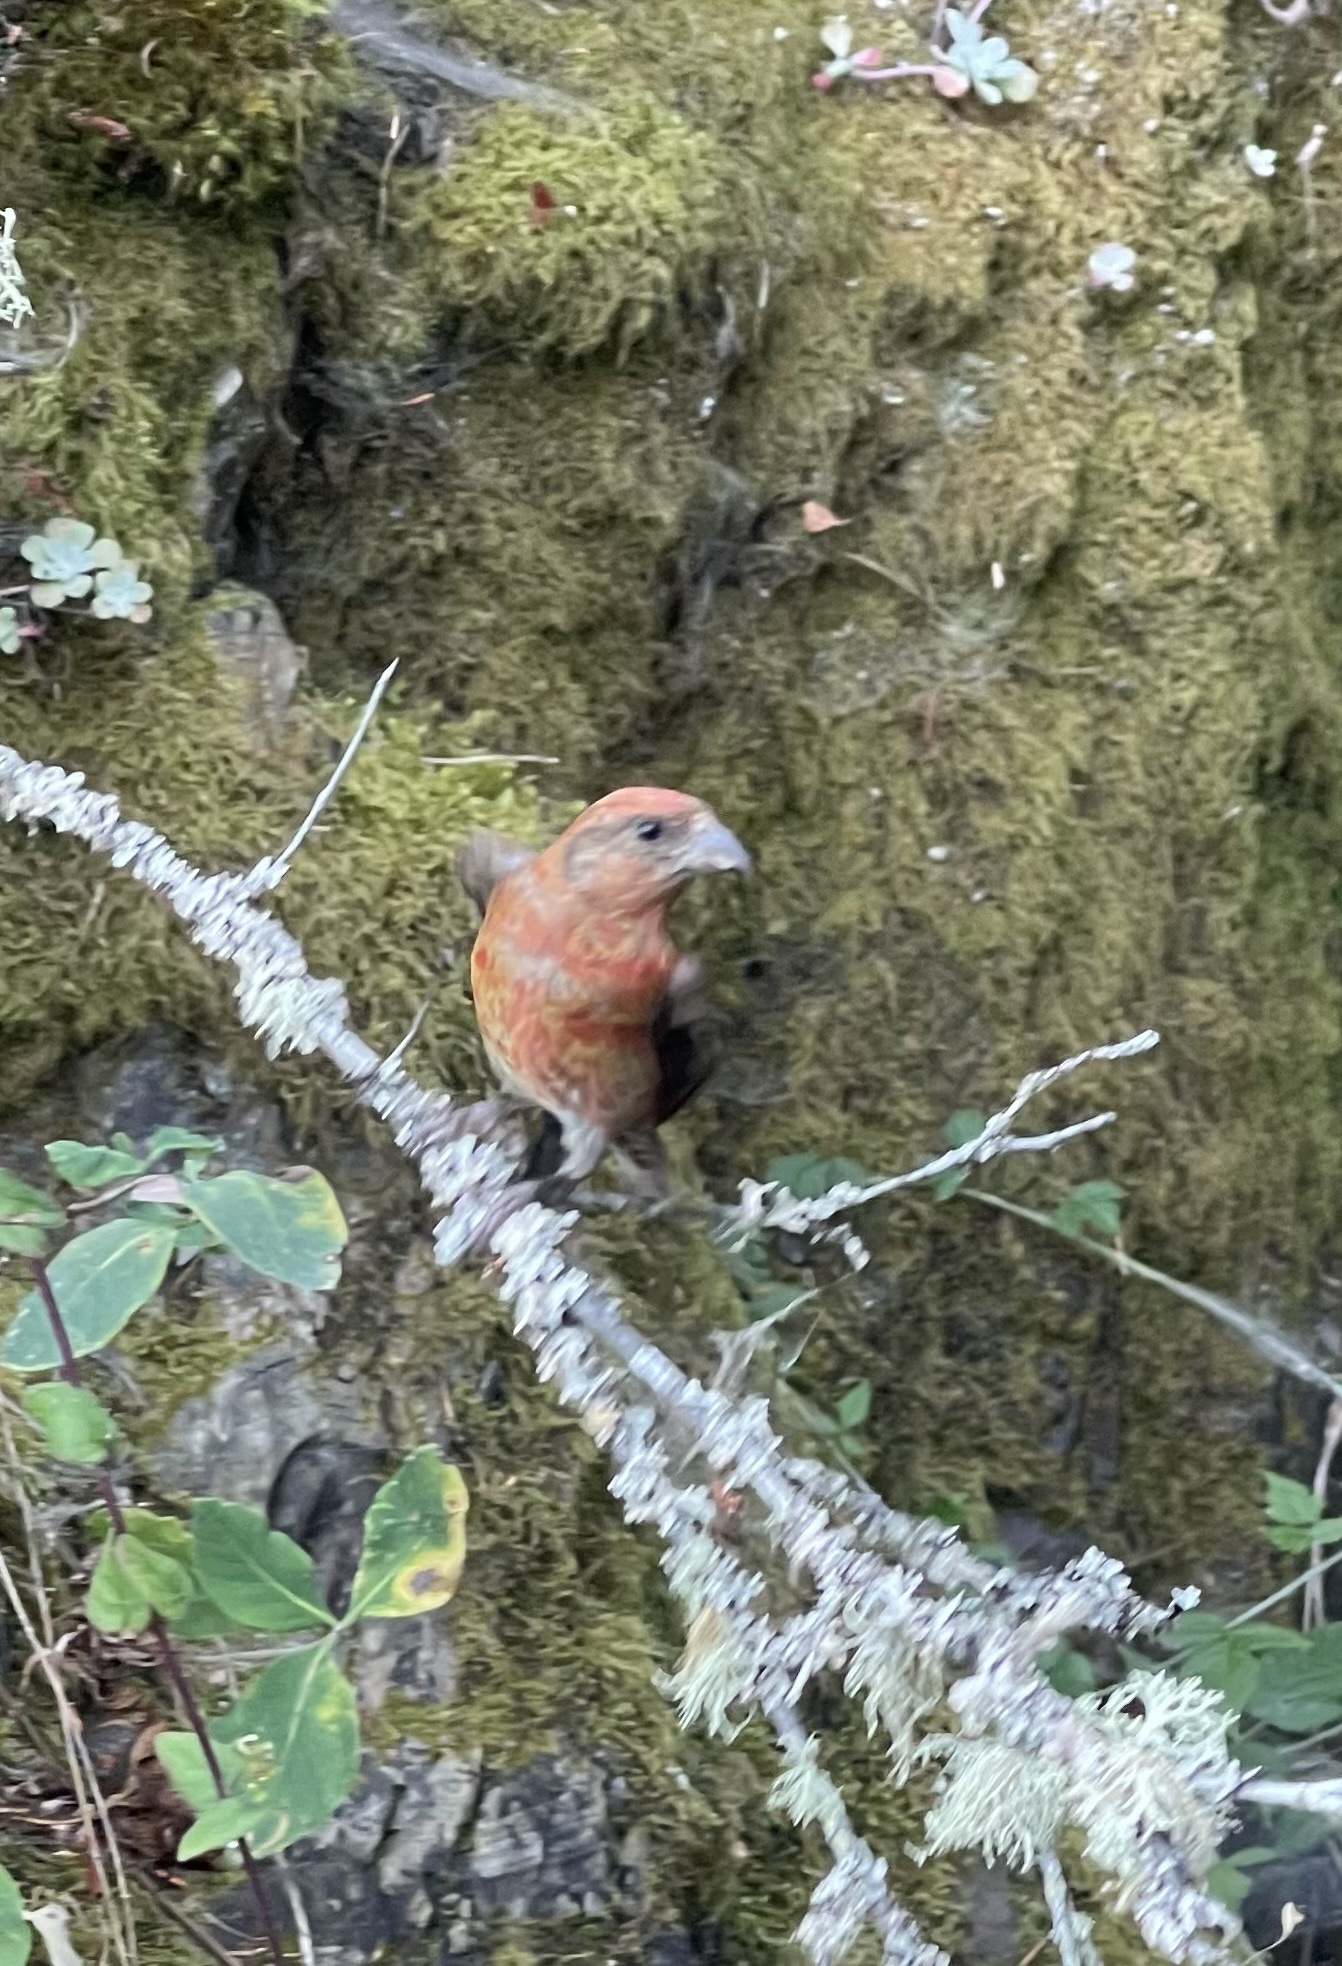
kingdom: Animalia
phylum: Chordata
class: Aves
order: Passeriformes
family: Fringillidae
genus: Loxia
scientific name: Loxia curvirostra
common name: Red crossbill
